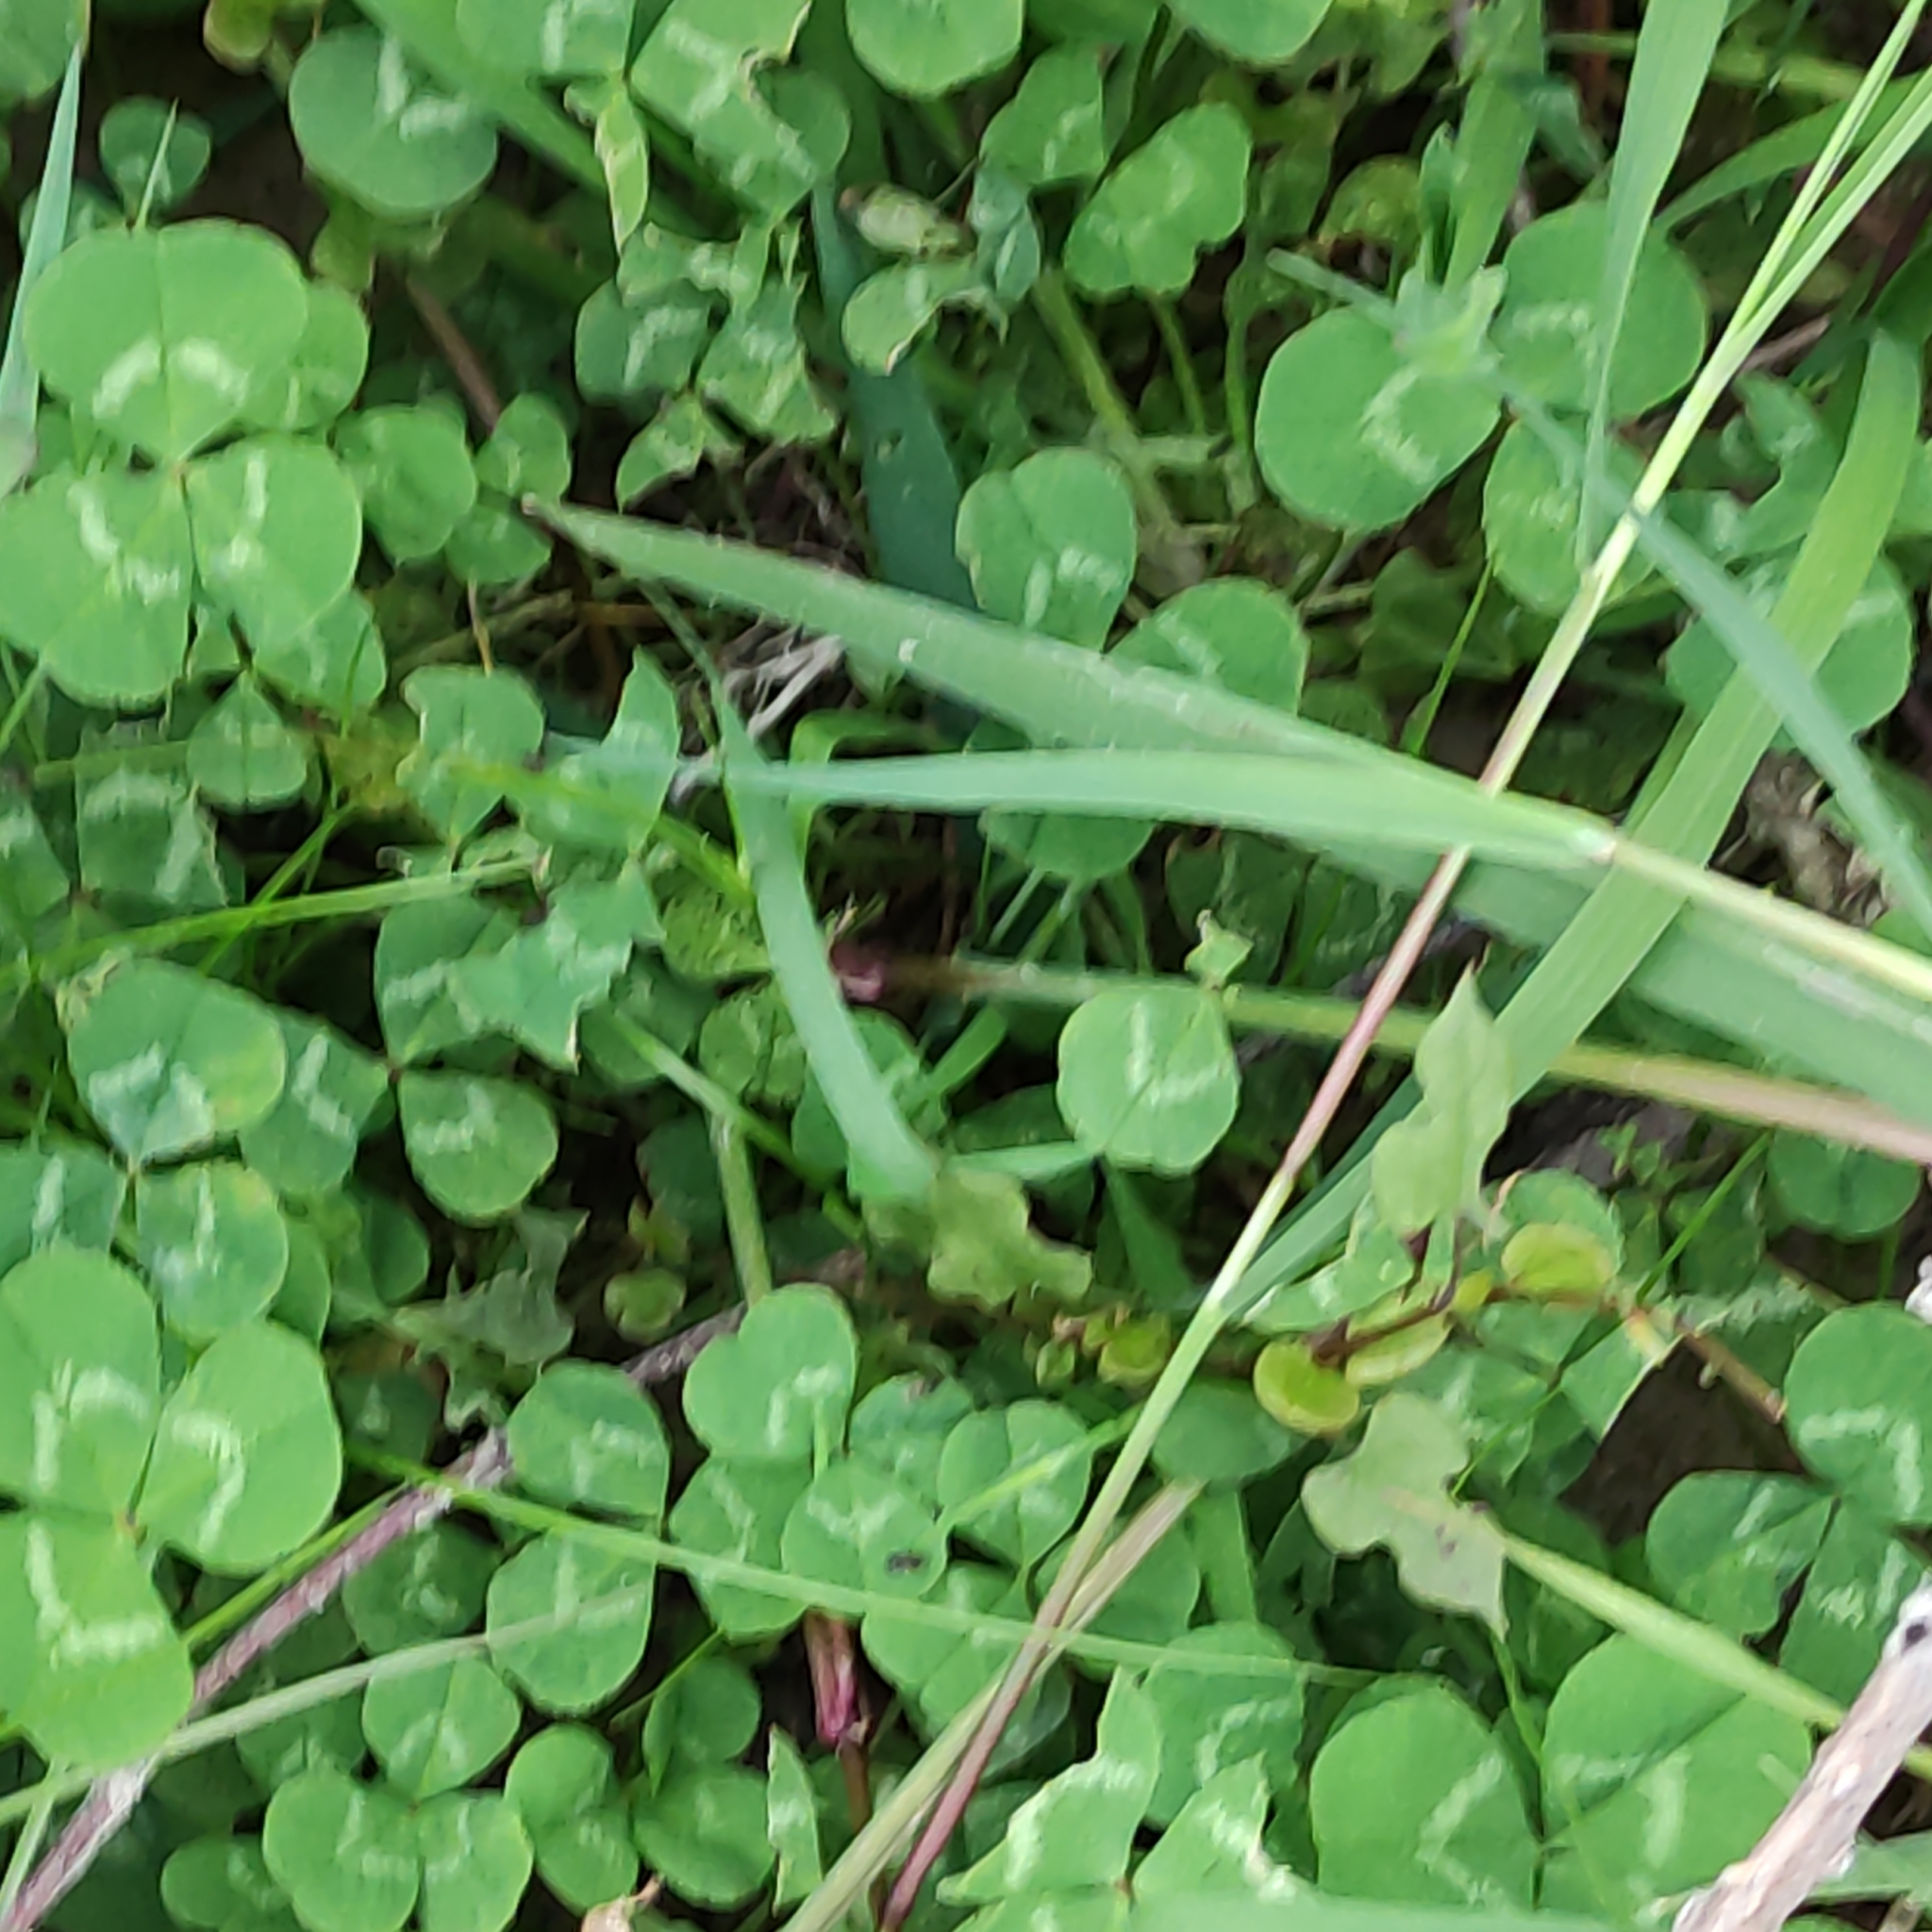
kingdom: Plantae
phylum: Tracheophyta
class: Magnoliopsida
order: Fabales
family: Fabaceae
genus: Trifolium
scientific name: Trifolium repens
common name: White clover
